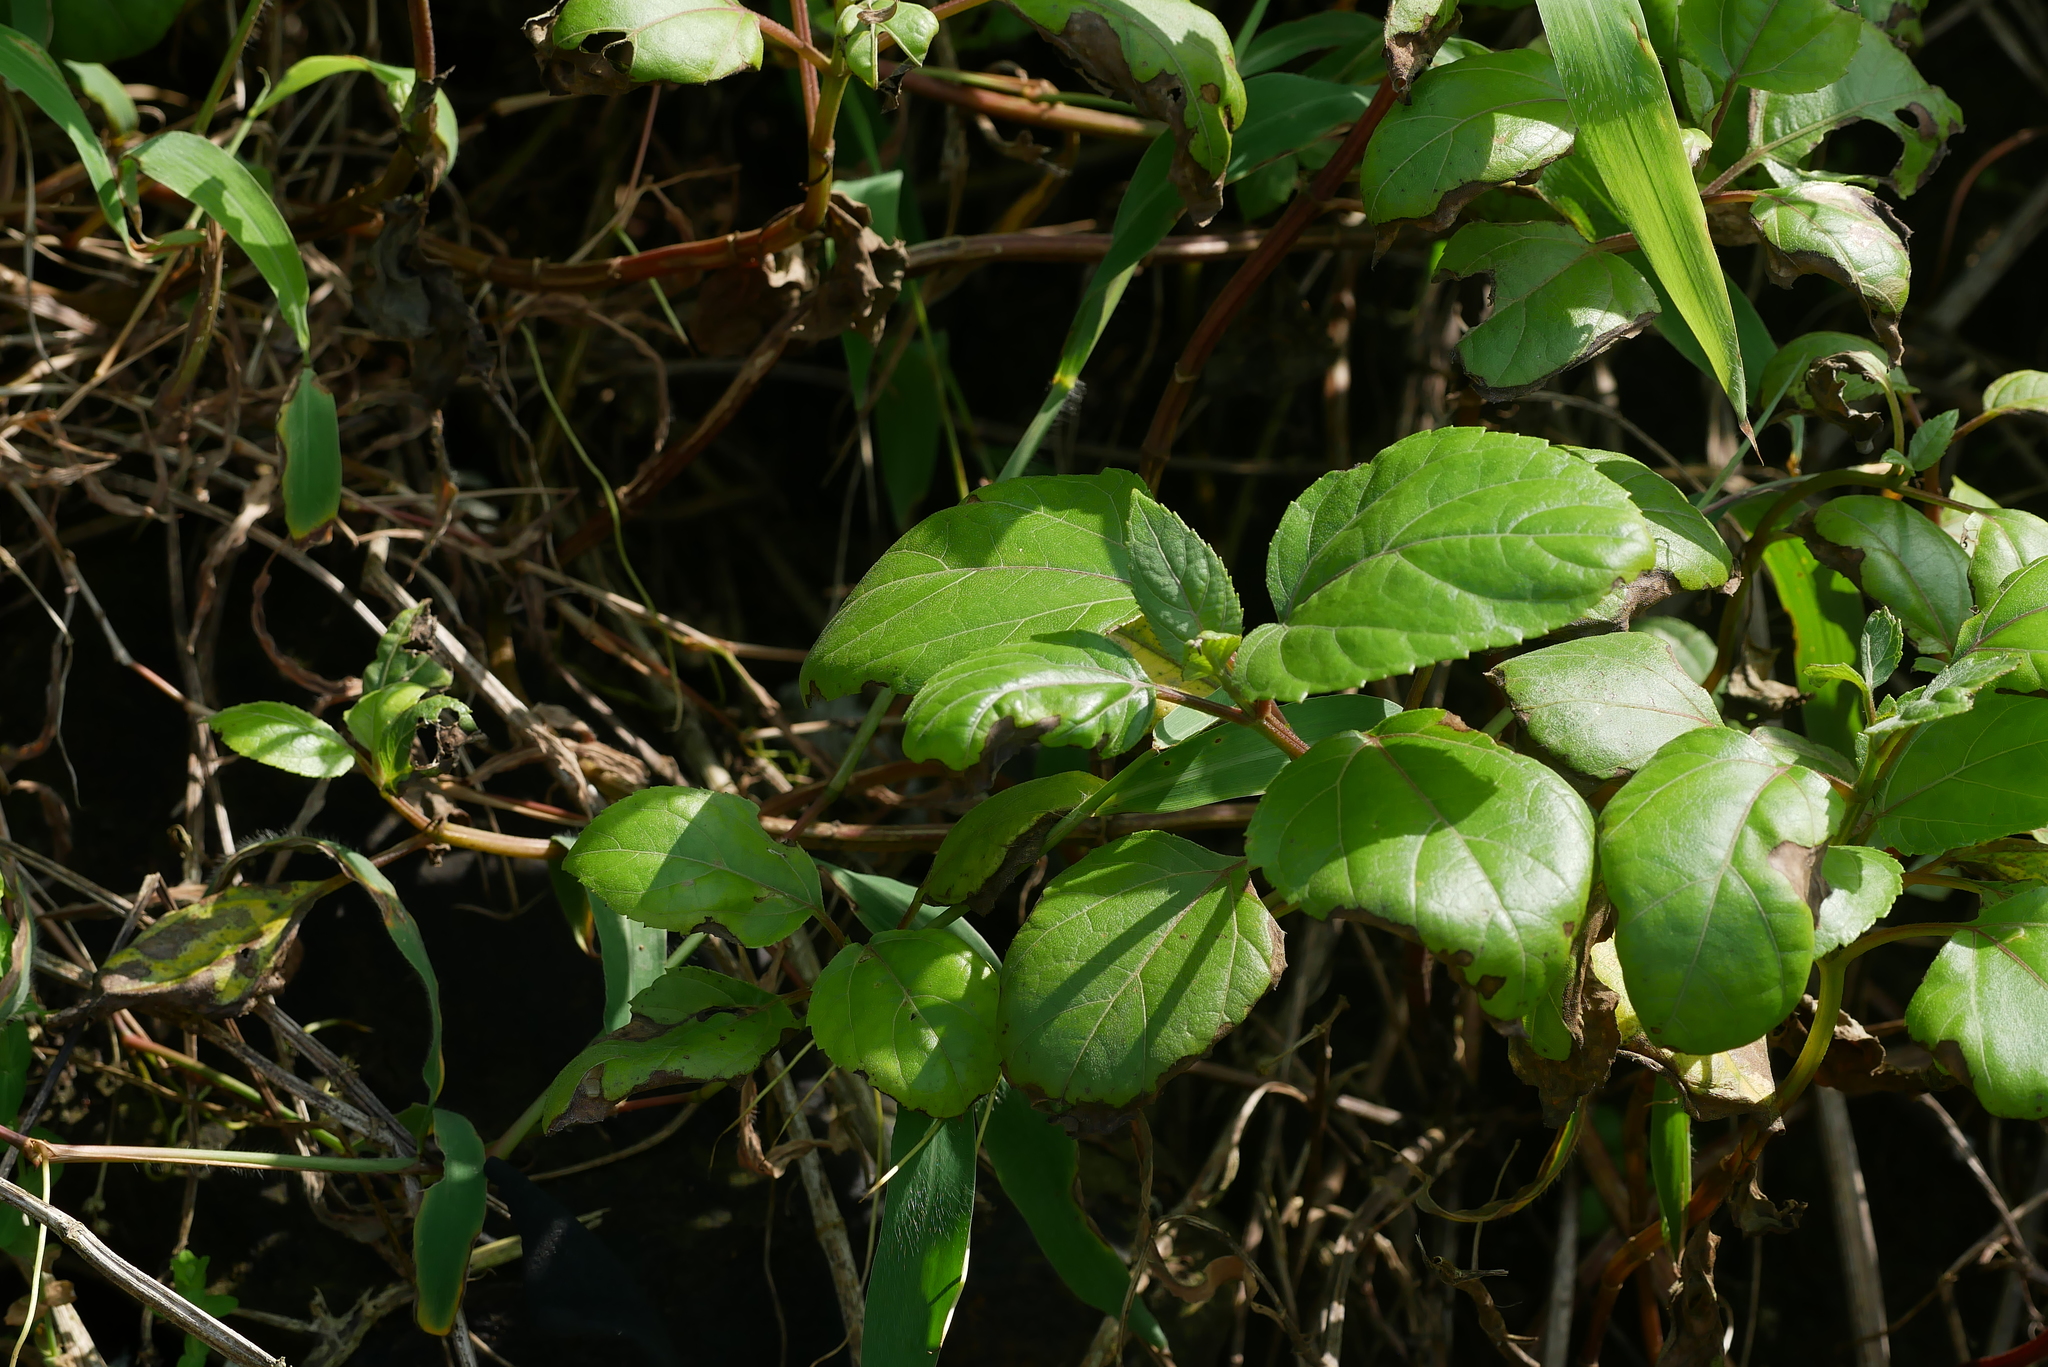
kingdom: Plantae
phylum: Tracheophyta
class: Magnoliopsida
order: Asterales
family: Asteraceae
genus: Wollastonia
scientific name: Wollastonia biflora
